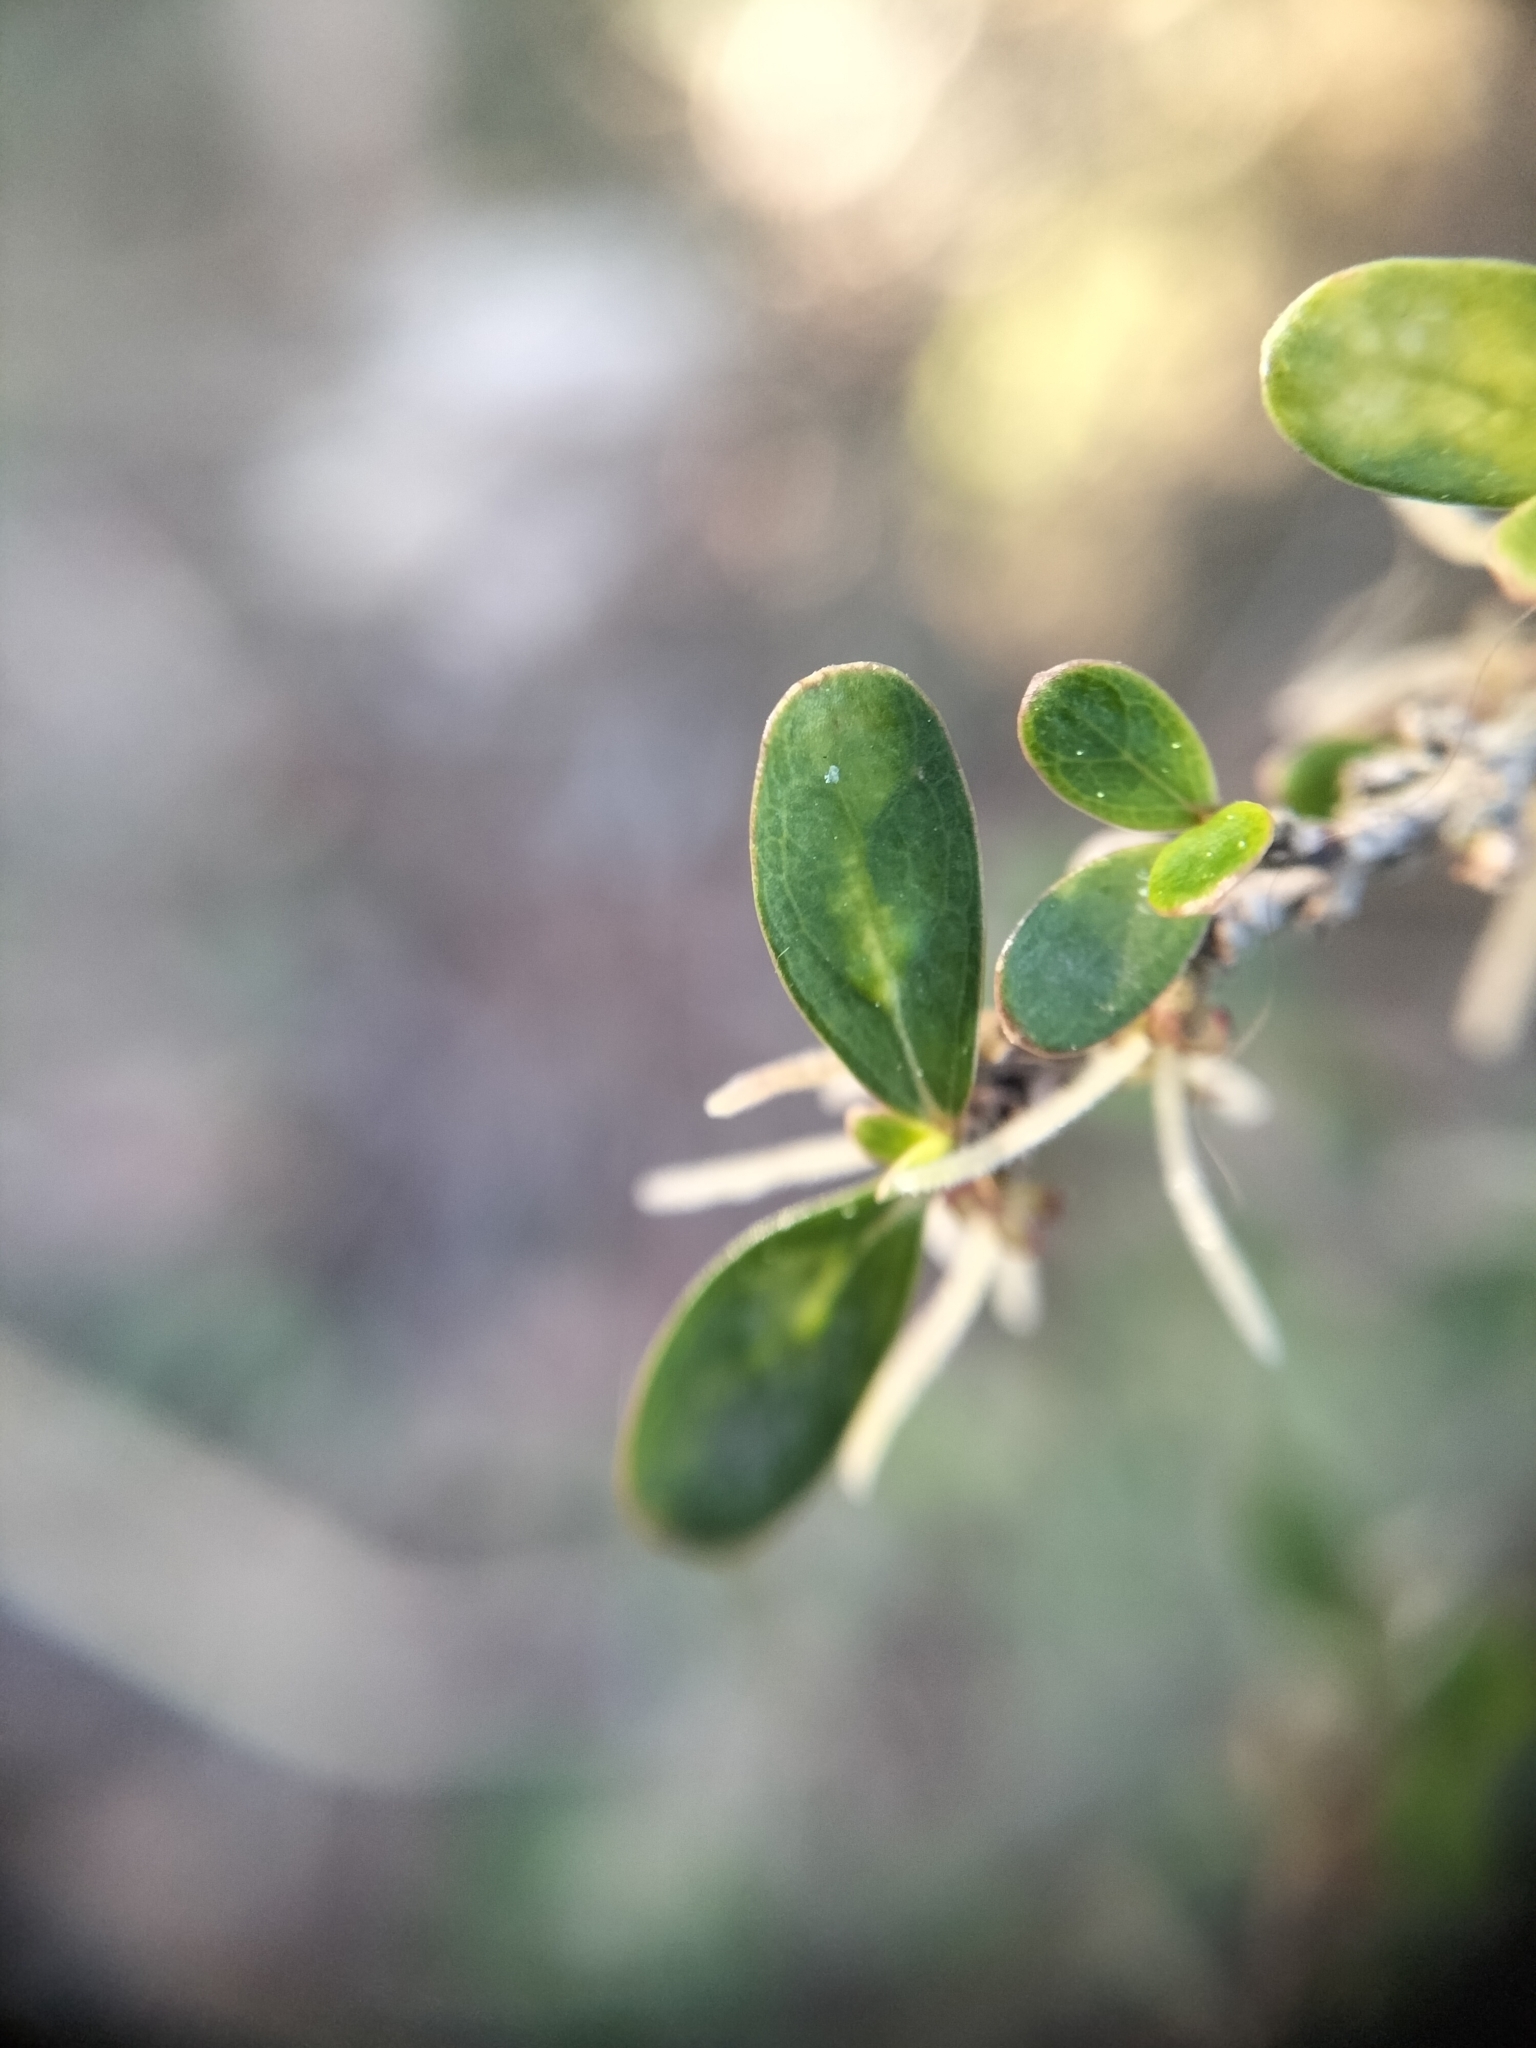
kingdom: Plantae
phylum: Tracheophyta
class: Magnoliopsida
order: Gentianales
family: Rubiaceae
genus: Coprosma
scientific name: Coprosma rigida
